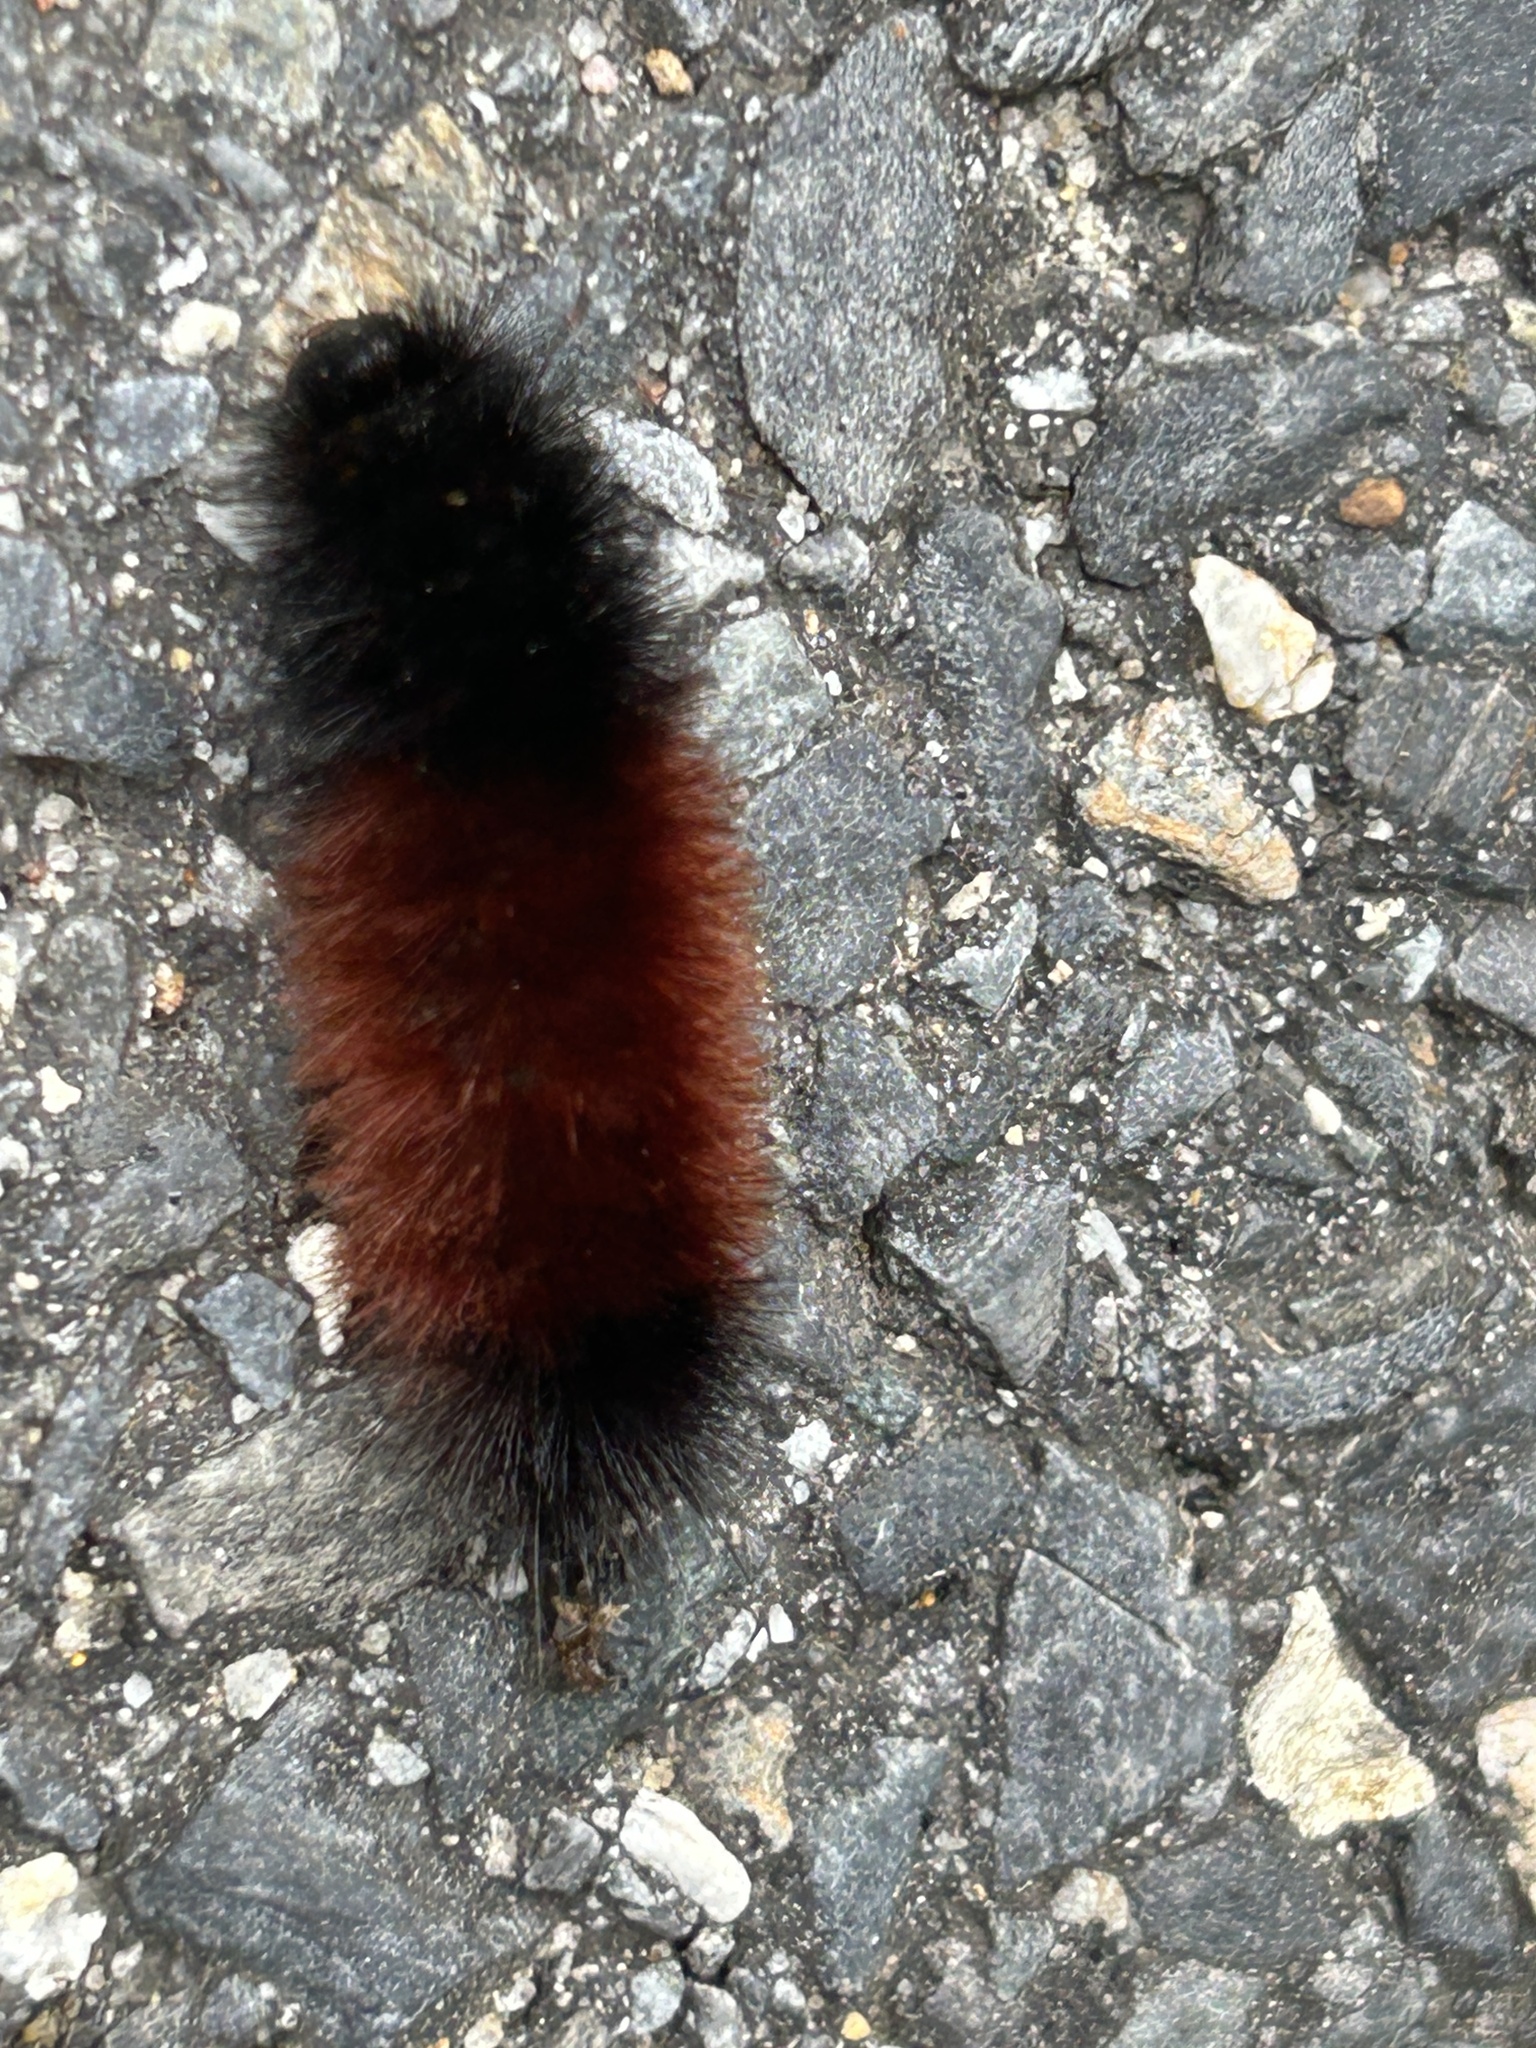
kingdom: Animalia
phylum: Arthropoda
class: Insecta
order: Lepidoptera
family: Erebidae
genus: Pyrrharctia
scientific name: Pyrrharctia isabella
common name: Isabella tiger moth
